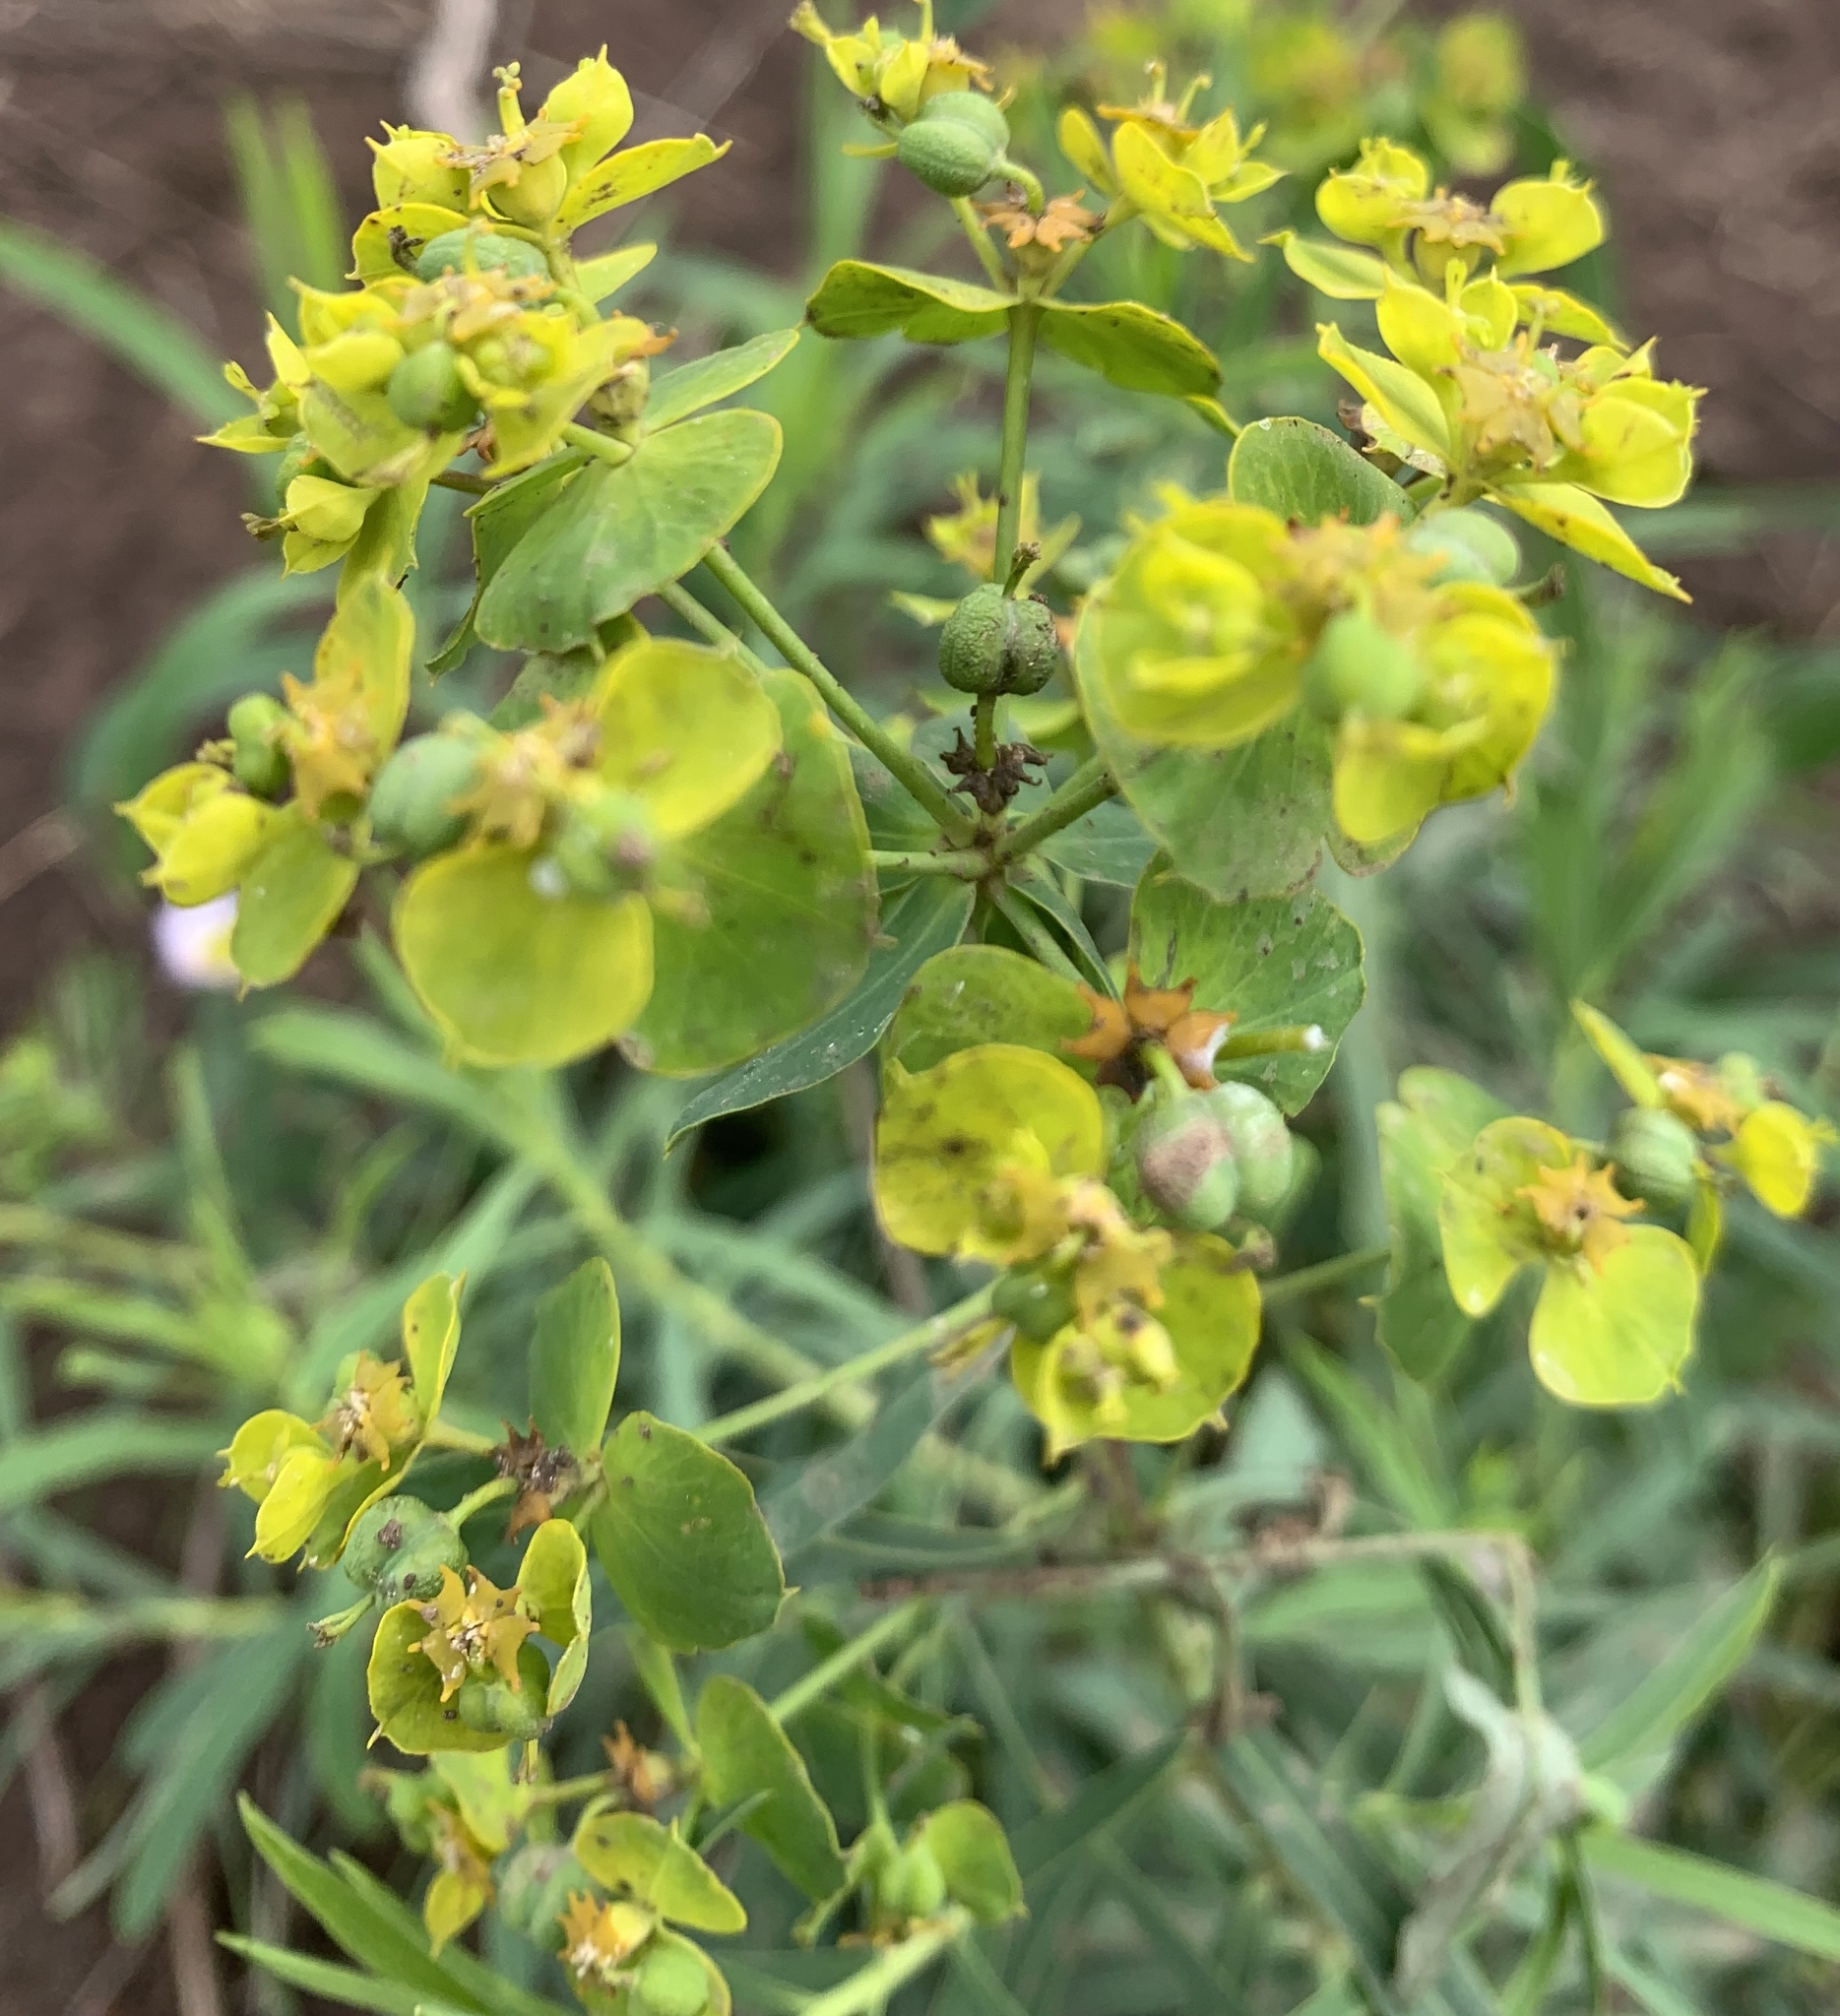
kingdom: Plantae
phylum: Tracheophyta
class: Magnoliopsida
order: Malpighiales
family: Euphorbiaceae
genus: Euphorbia
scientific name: Euphorbia virgata
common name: Leafy spurge
